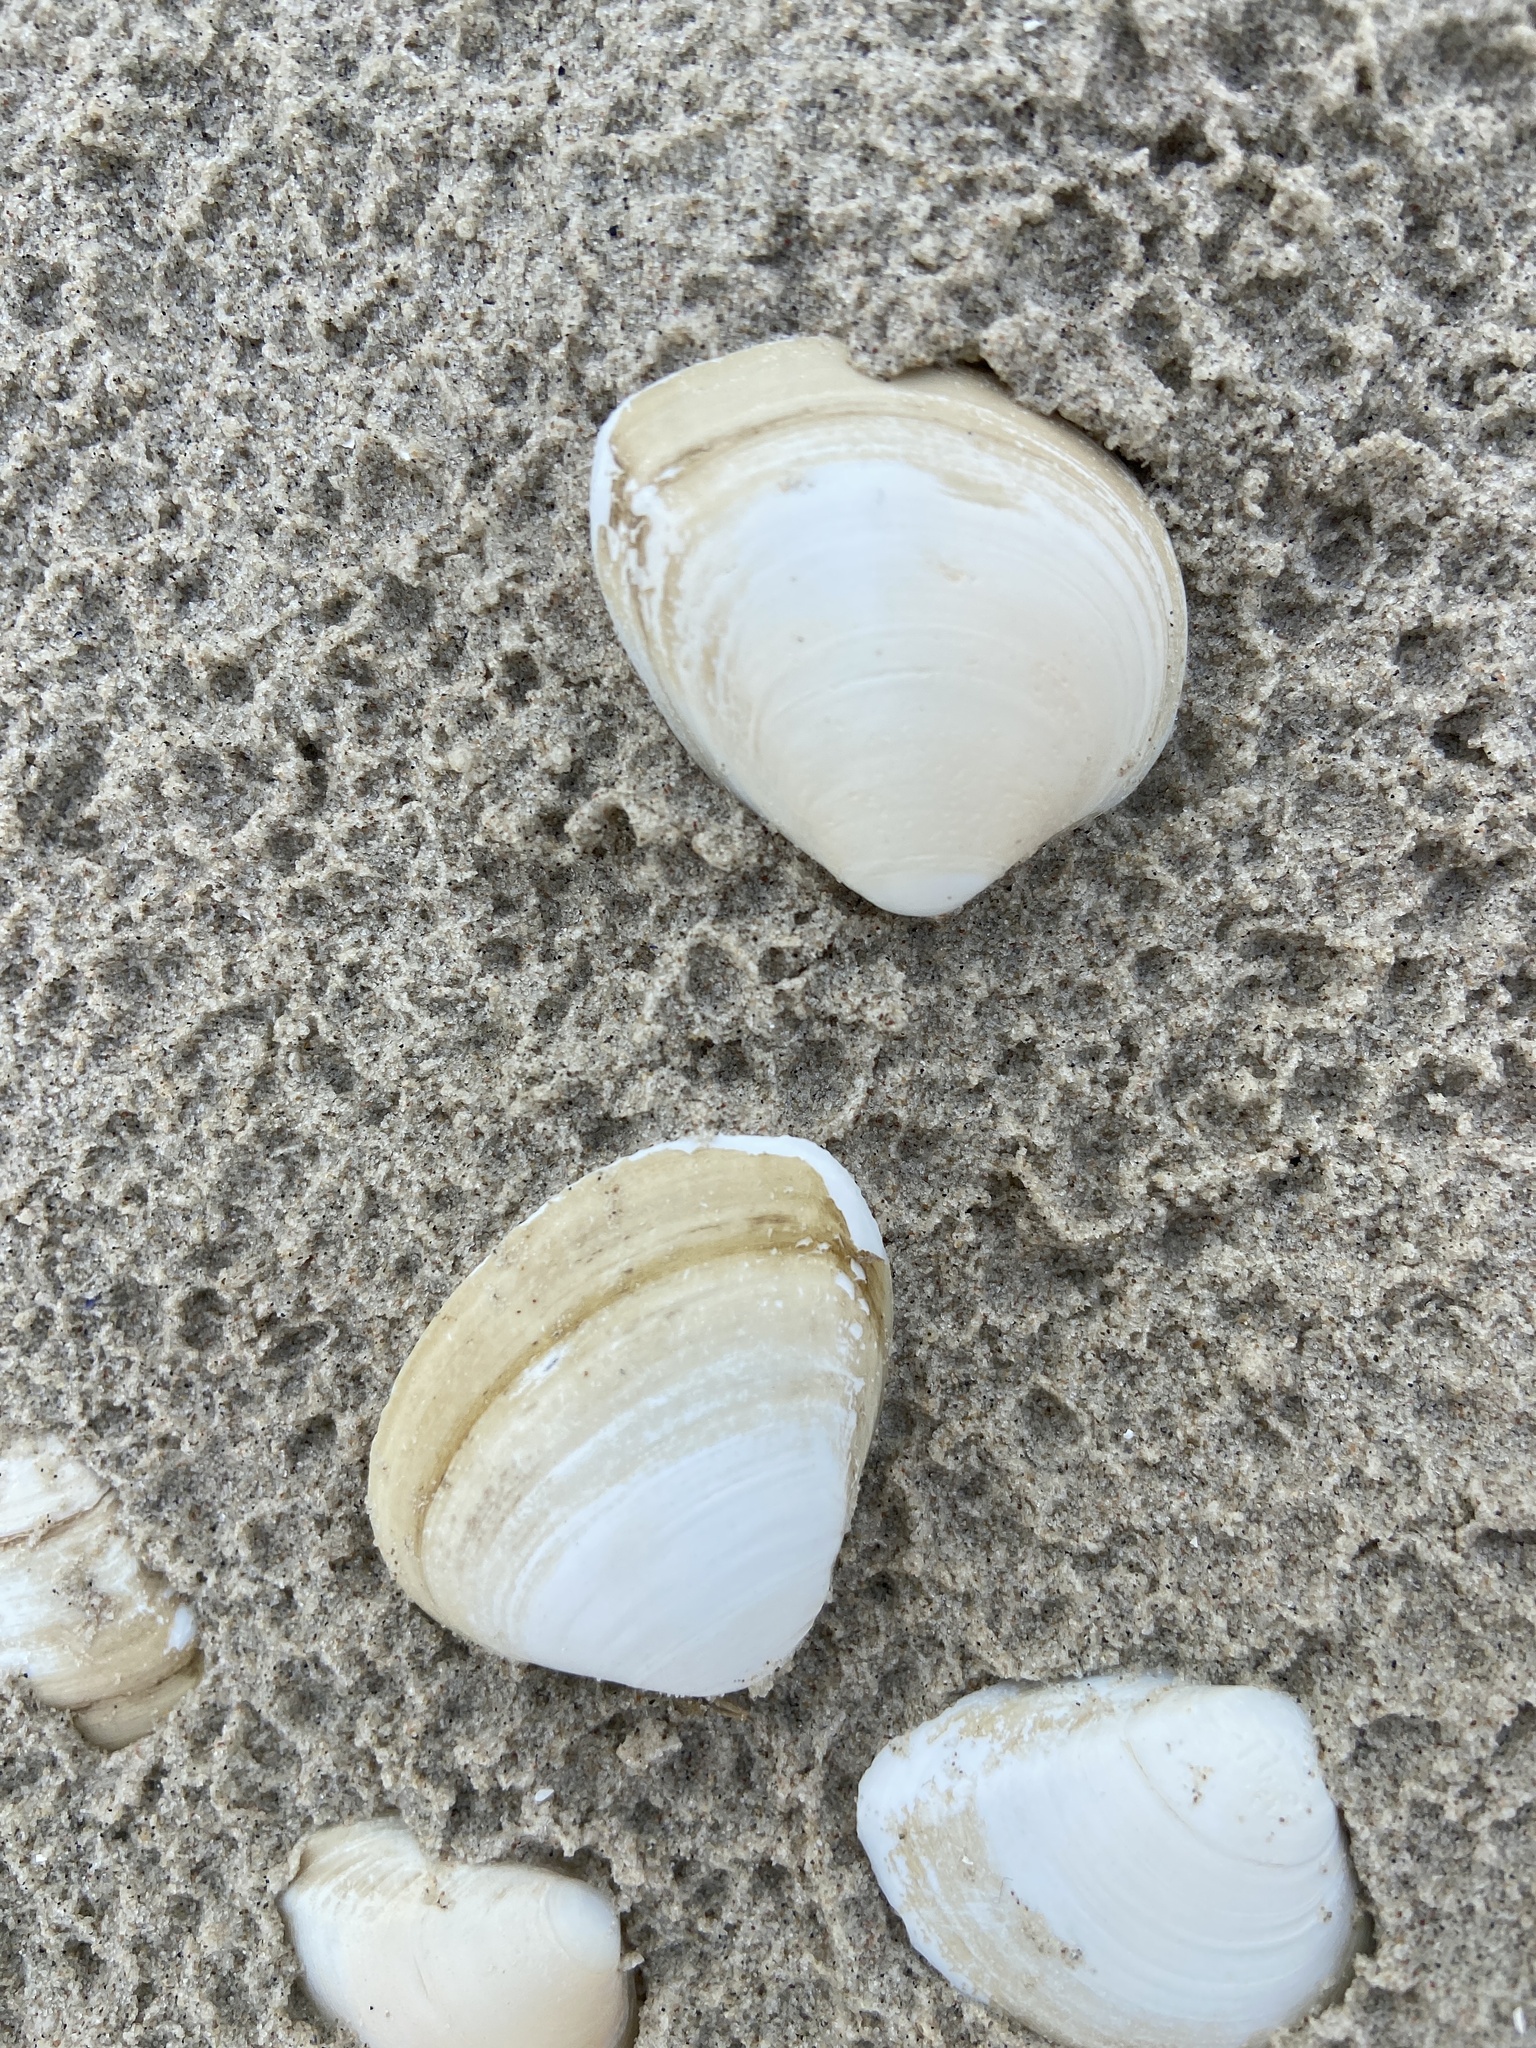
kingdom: Animalia
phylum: Mollusca
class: Bivalvia
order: Venerida
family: Mactridae
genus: Rangia
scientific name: Rangia cuneata
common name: Atlantic rangia
